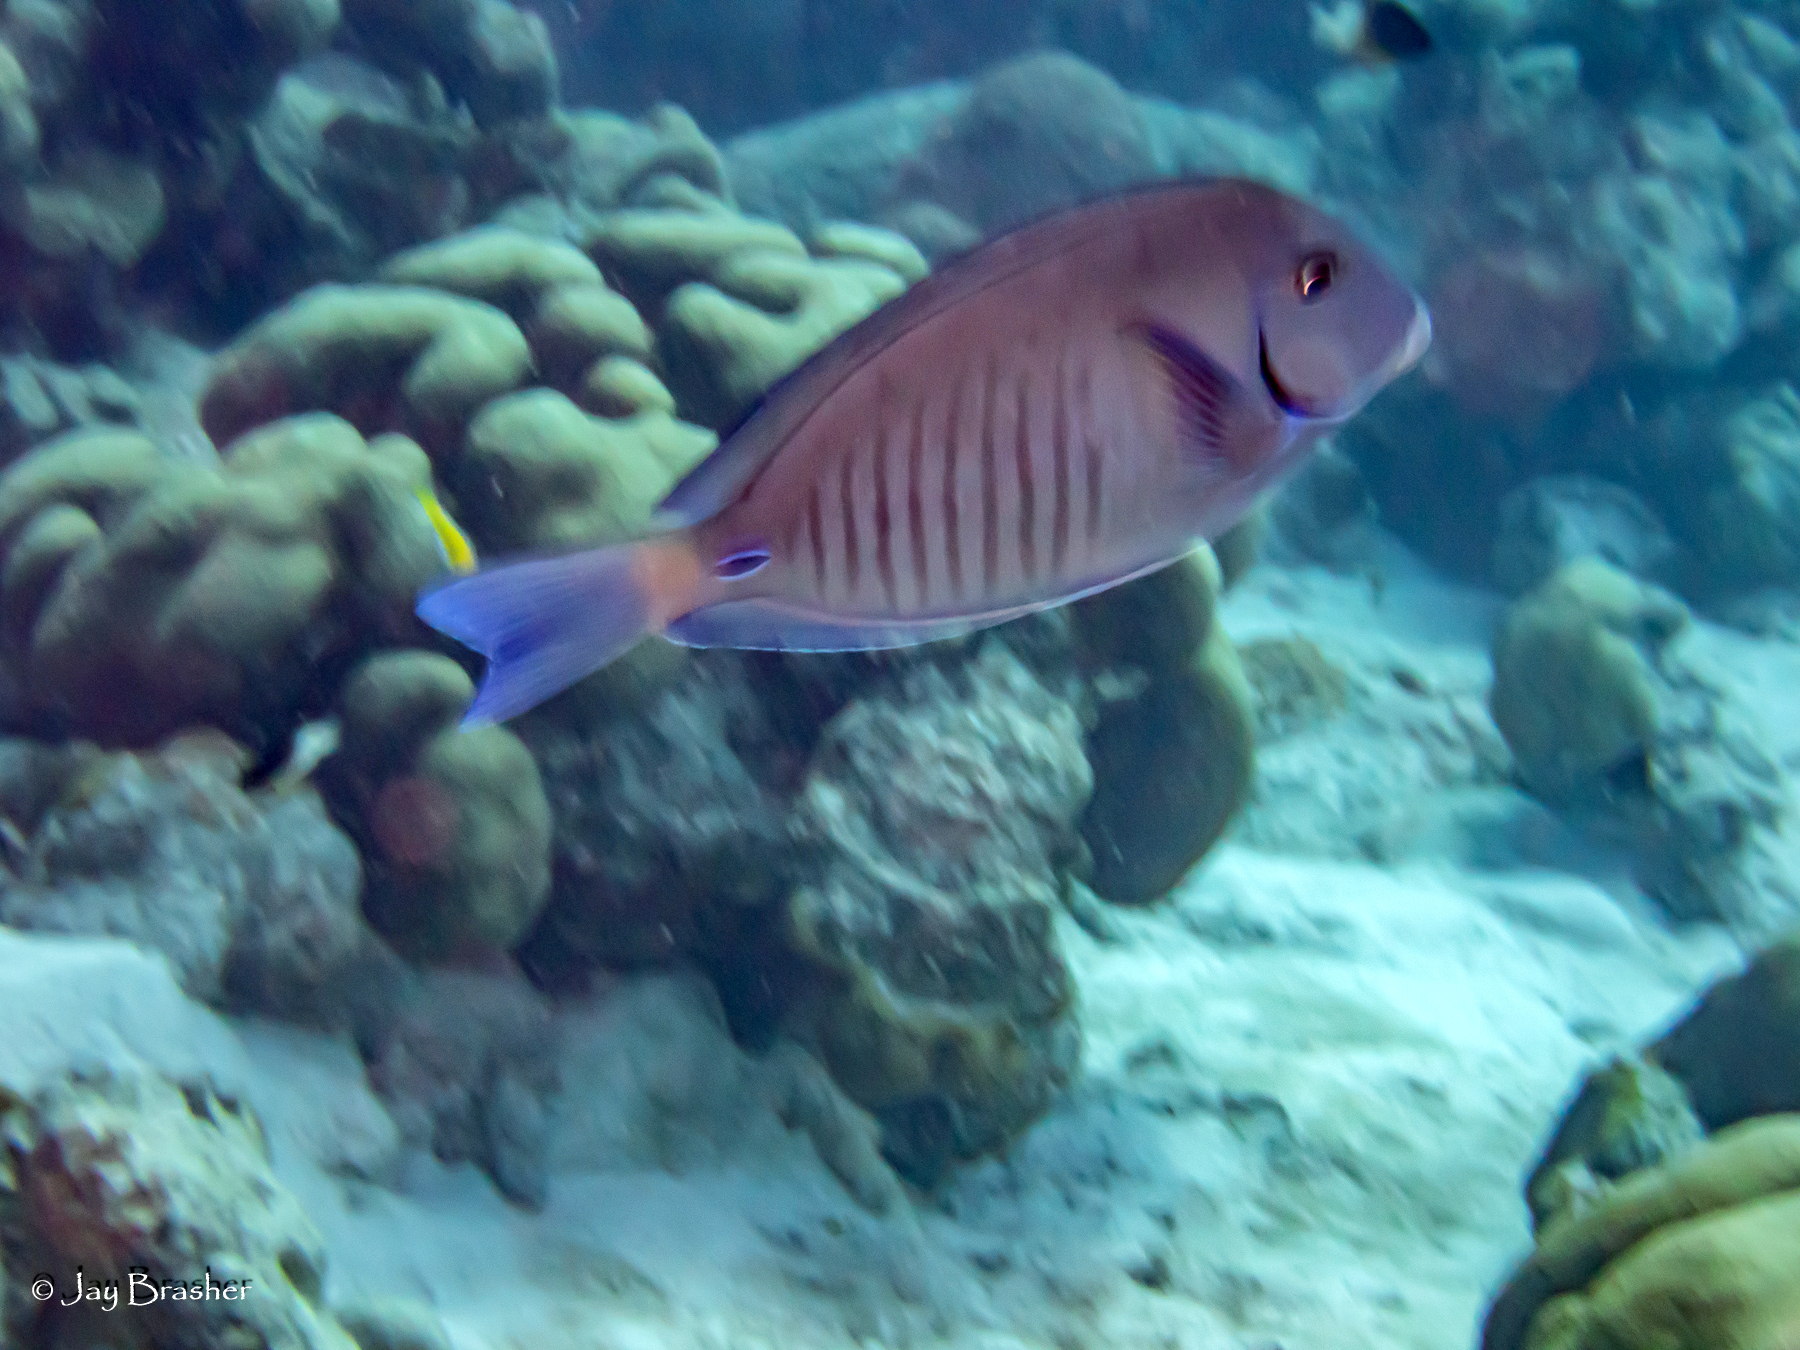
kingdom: Animalia
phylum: Chordata
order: Perciformes
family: Acanthuridae
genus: Acanthurus
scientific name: Acanthurus chirurgus
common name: Doctorfish
